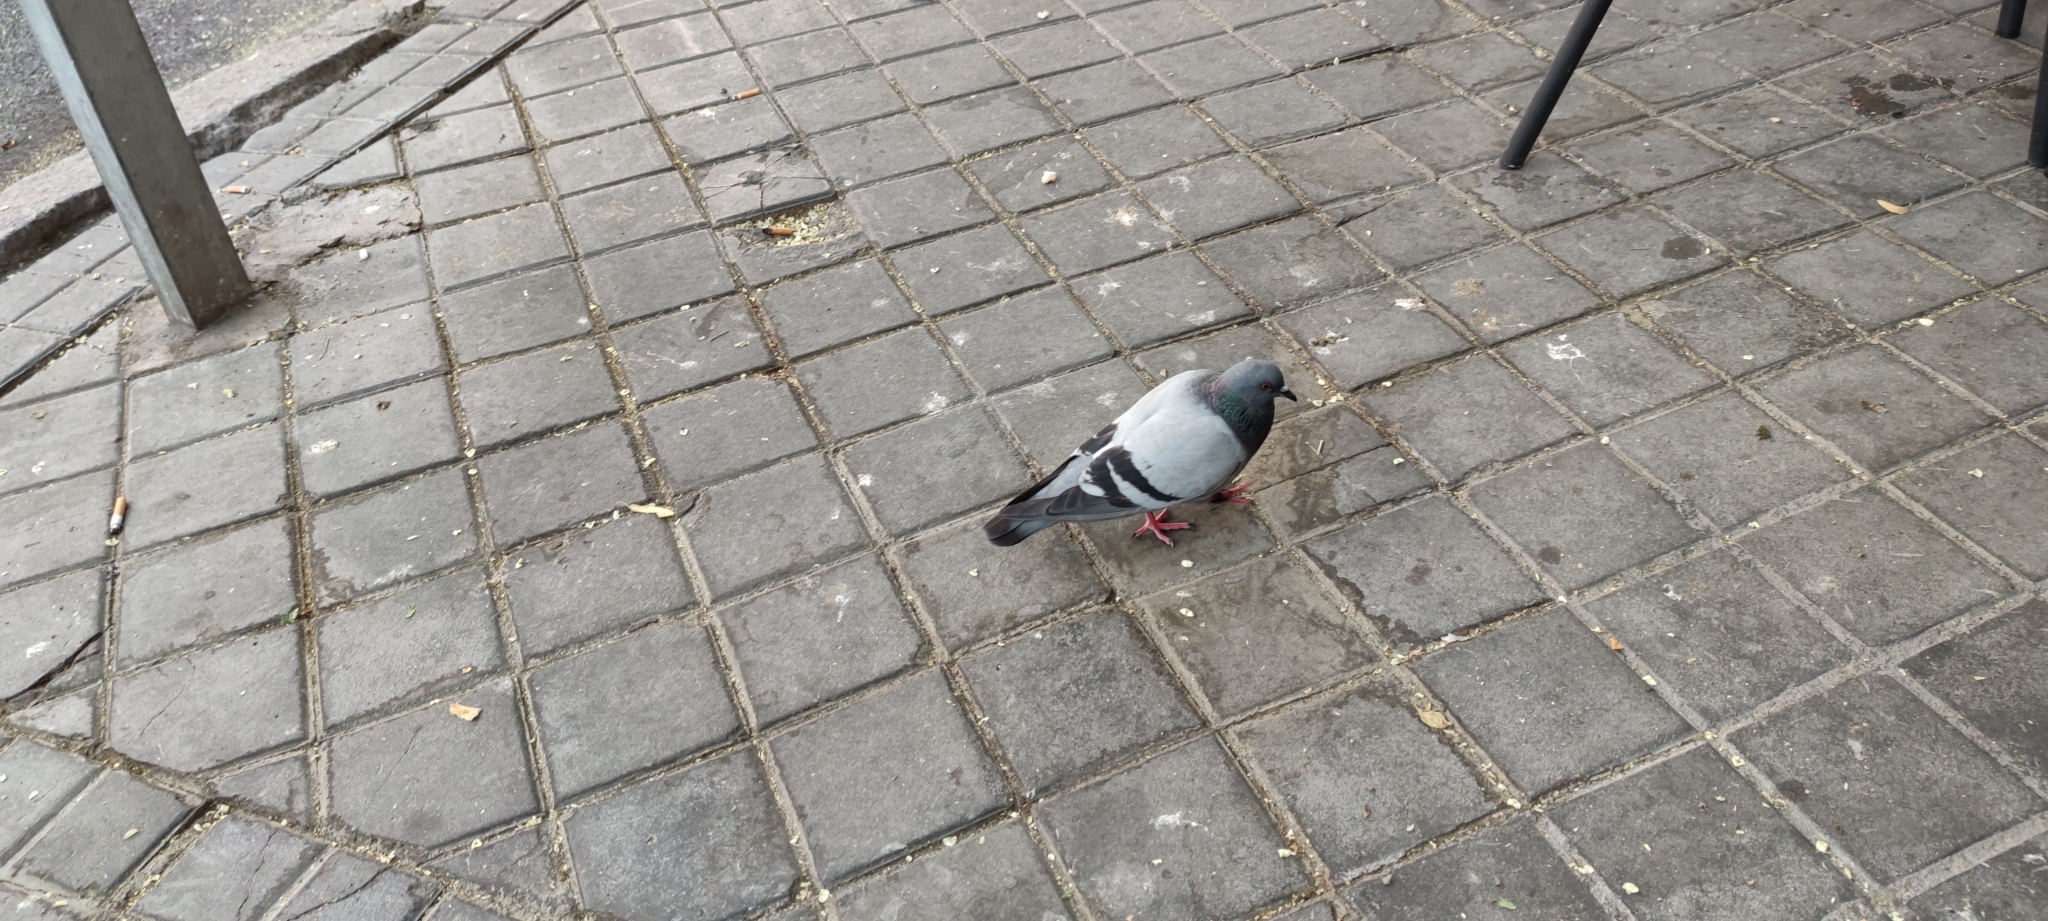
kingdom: Animalia
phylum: Chordata
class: Aves
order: Columbiformes
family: Columbidae
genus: Columba
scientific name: Columba livia
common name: Rock pigeon
